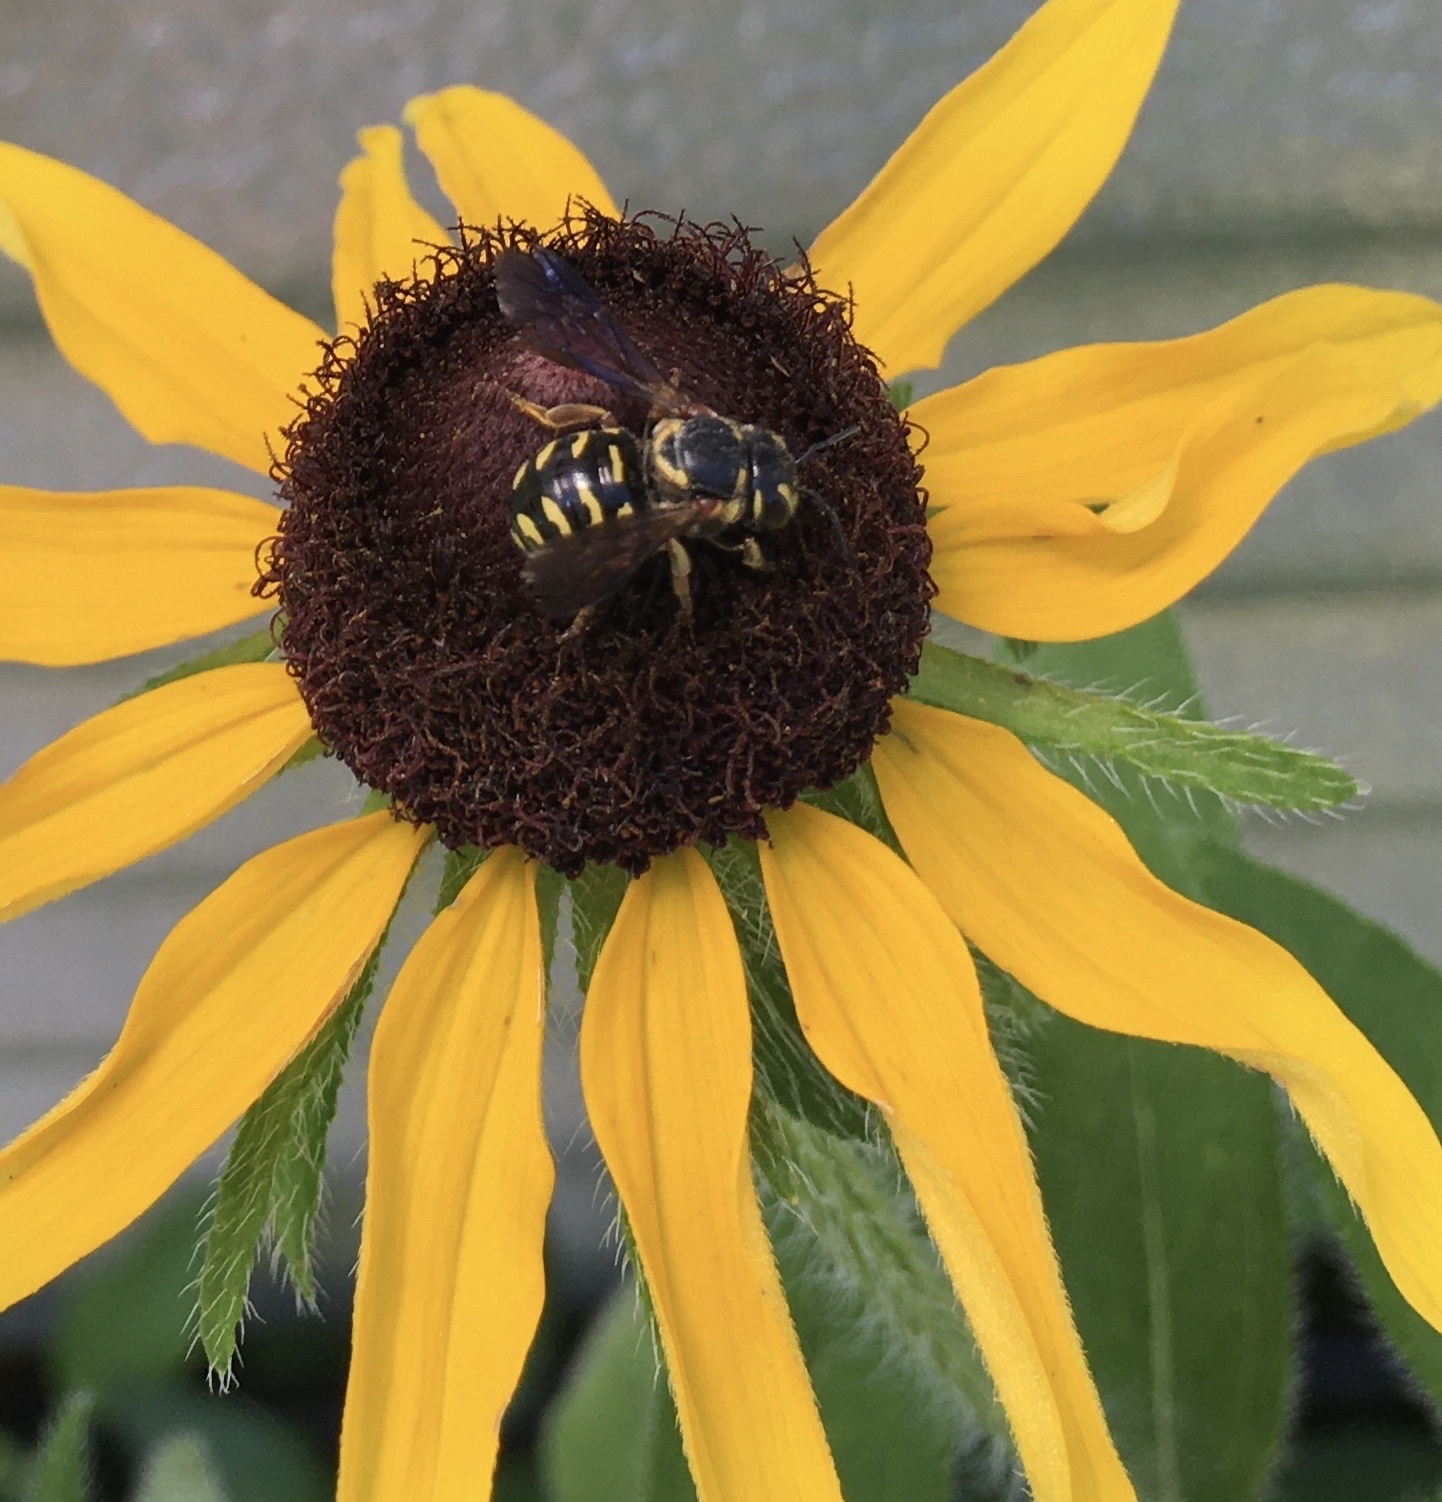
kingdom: Animalia
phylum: Arthropoda
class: Insecta
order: Hymenoptera
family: Megachilidae
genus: Dianthidium
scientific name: Dianthidium curvatum
